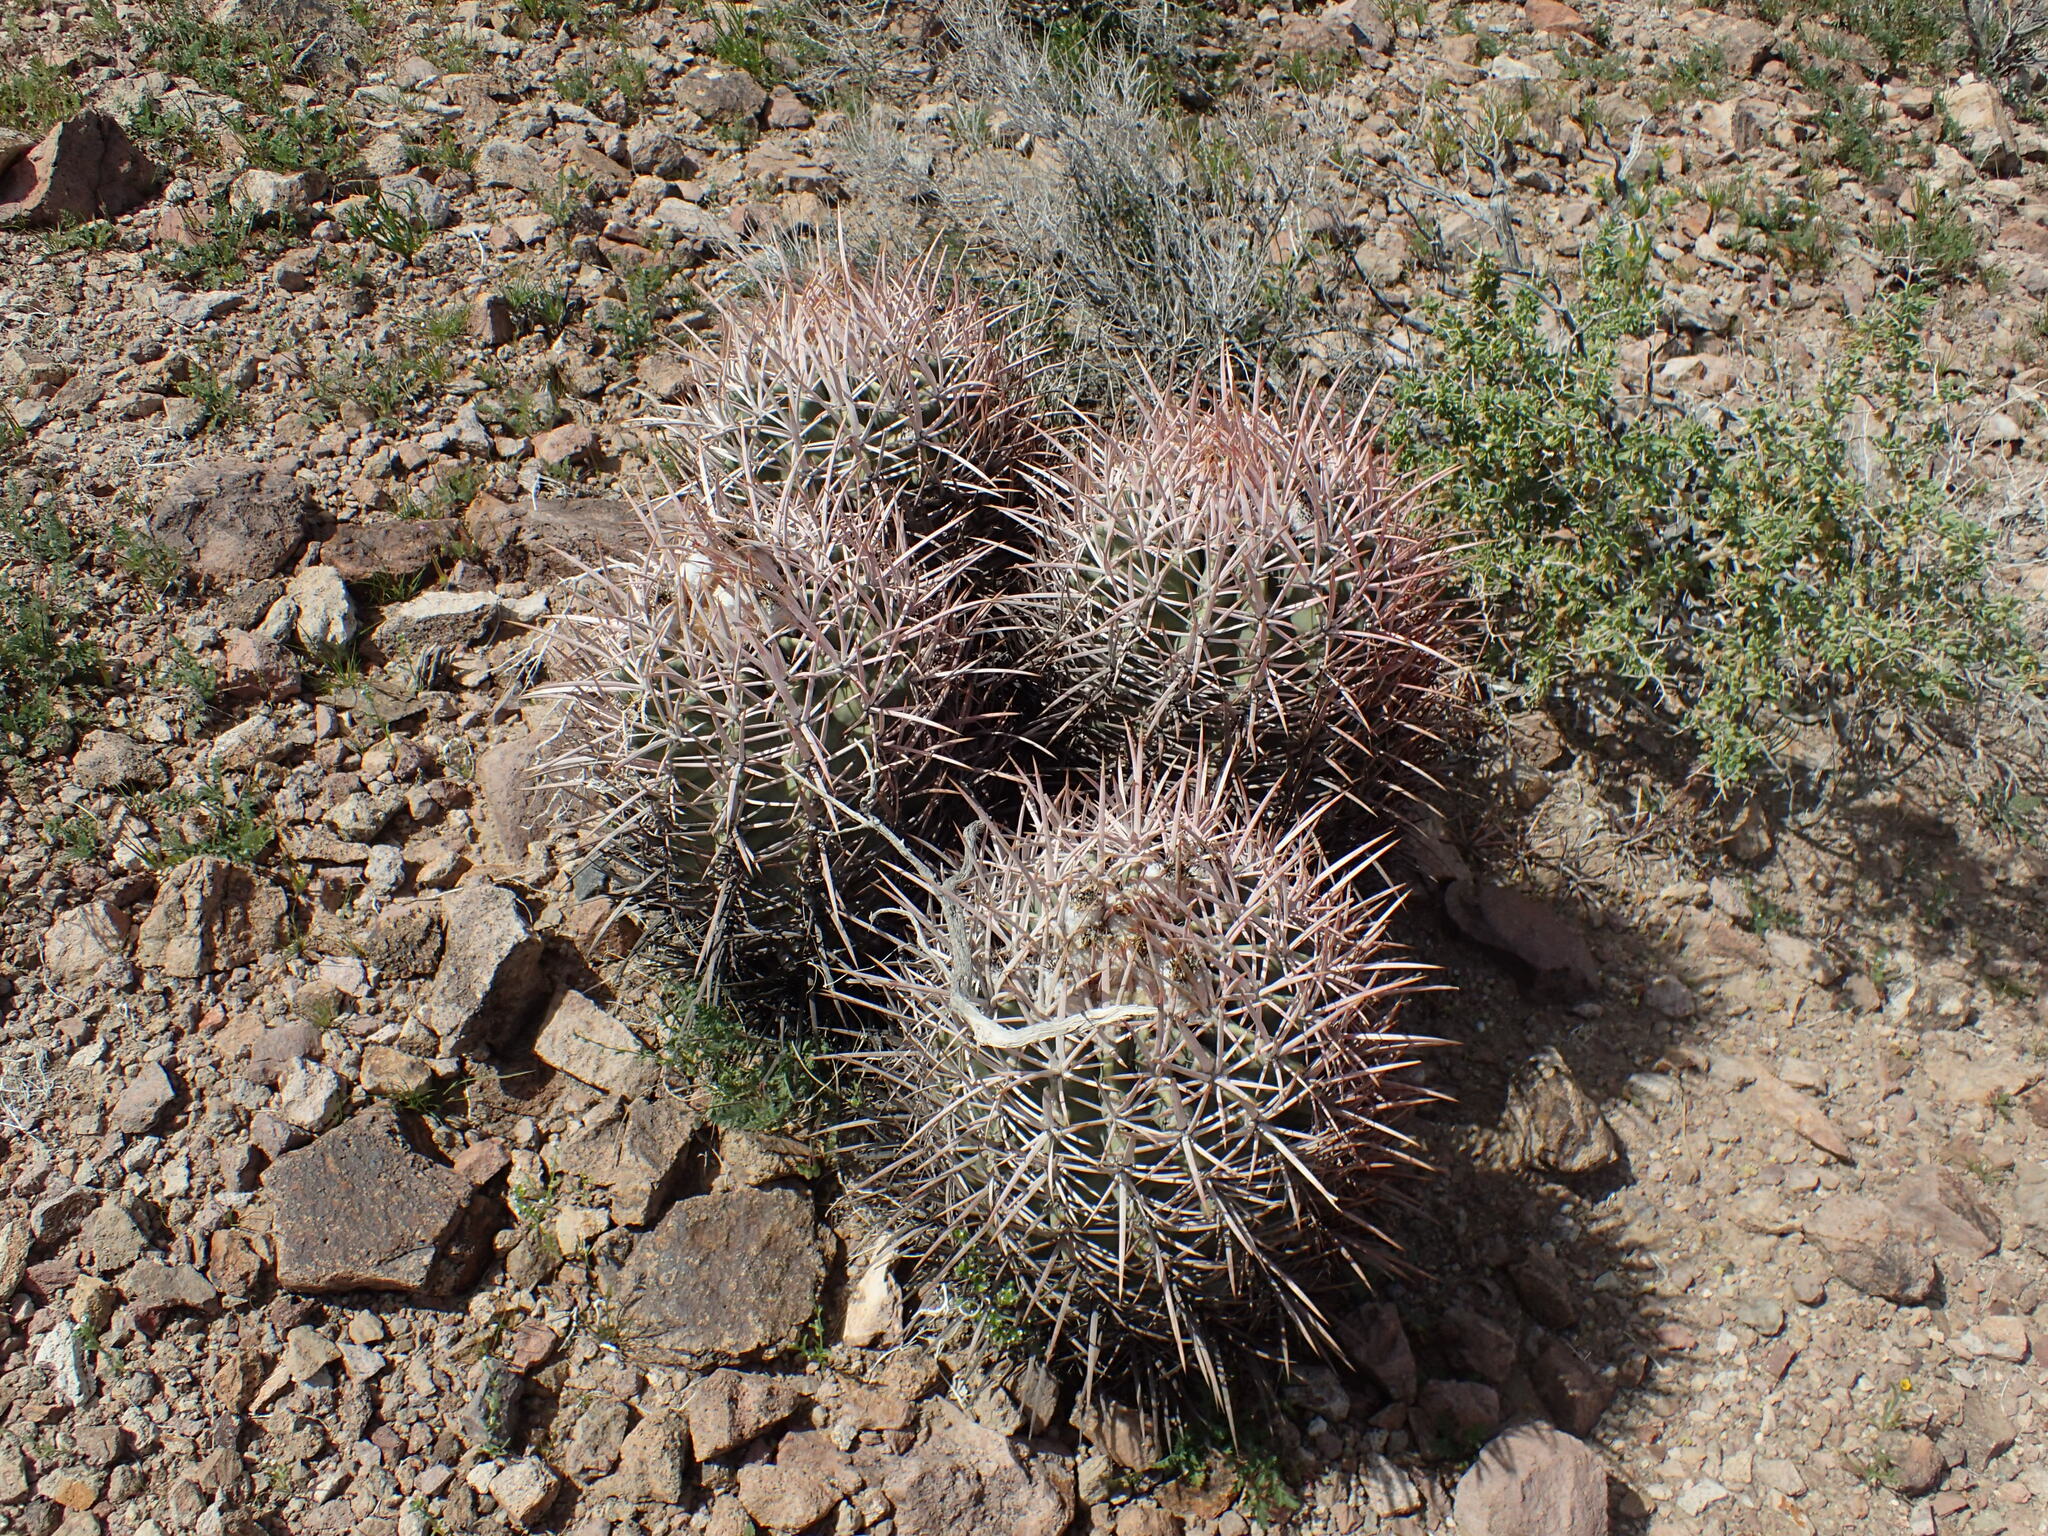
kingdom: Plantae
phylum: Tracheophyta
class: Magnoliopsida
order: Caryophyllales
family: Cactaceae
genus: Echinocactus
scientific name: Echinocactus polycephalus
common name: Cottontop cactus
